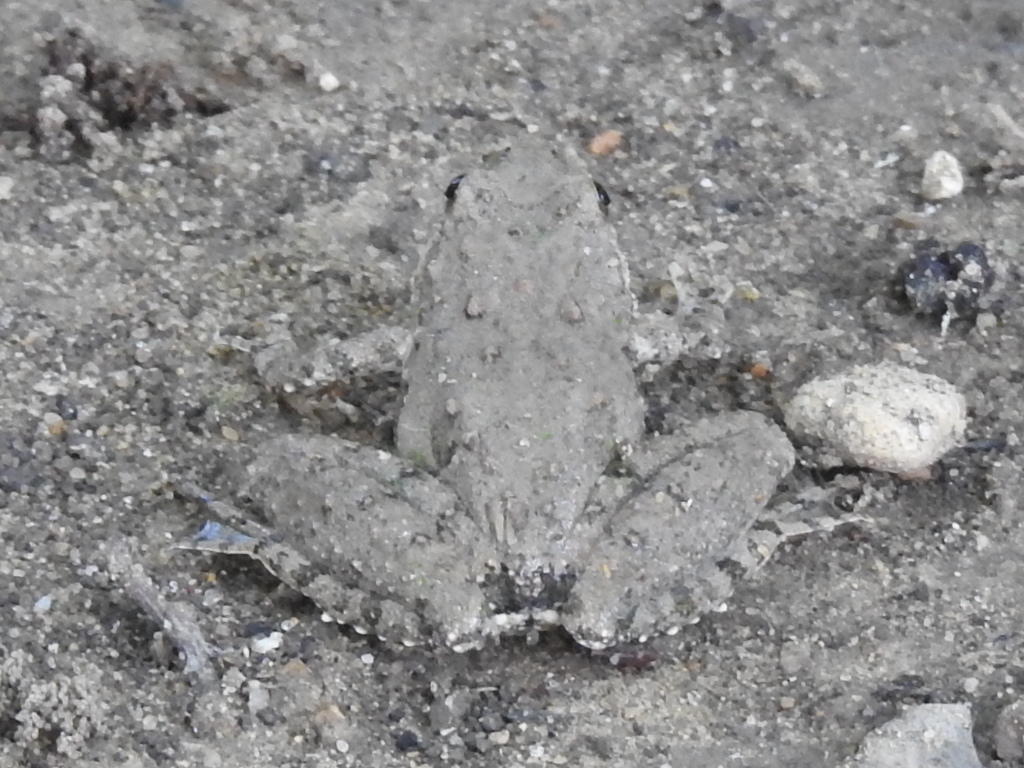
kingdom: Animalia
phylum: Chordata
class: Amphibia
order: Anura
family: Hylidae
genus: Acris
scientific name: Acris blanchardi
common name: Blanchard's cricket frog
